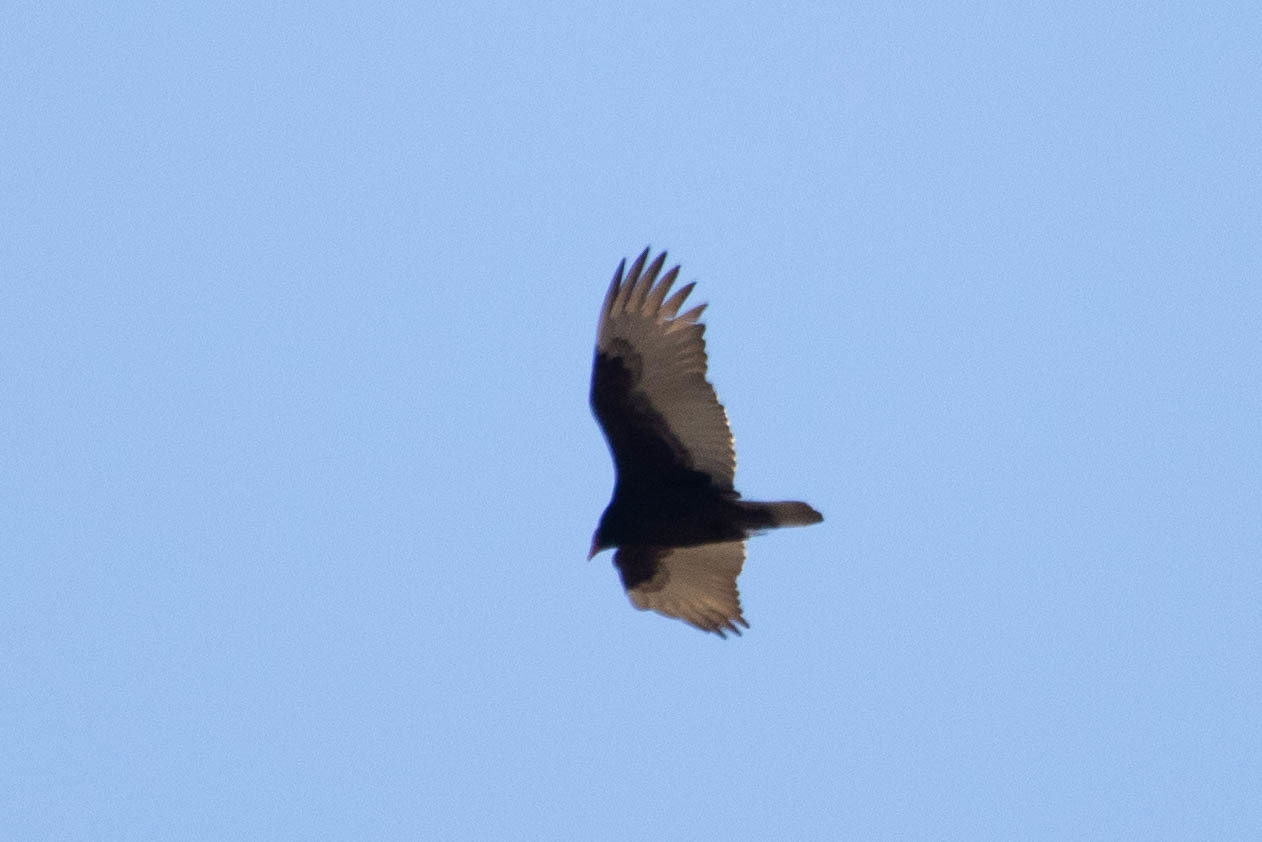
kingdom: Animalia
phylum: Chordata
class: Aves
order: Accipitriformes
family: Cathartidae
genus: Cathartes
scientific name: Cathartes aura
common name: Turkey vulture
